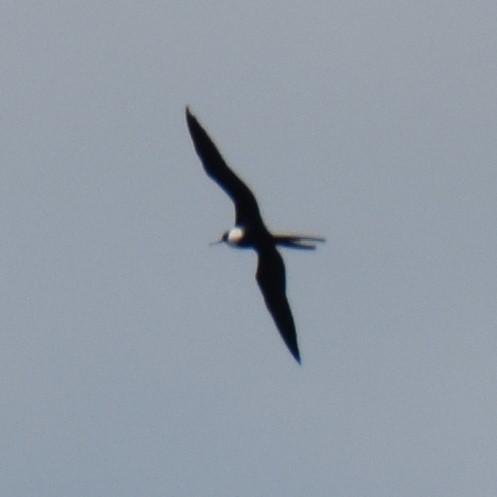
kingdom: Animalia
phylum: Chordata
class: Aves
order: Suliformes
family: Fregatidae
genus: Fregata
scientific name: Fregata magnificens
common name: Magnificent frigatebird
